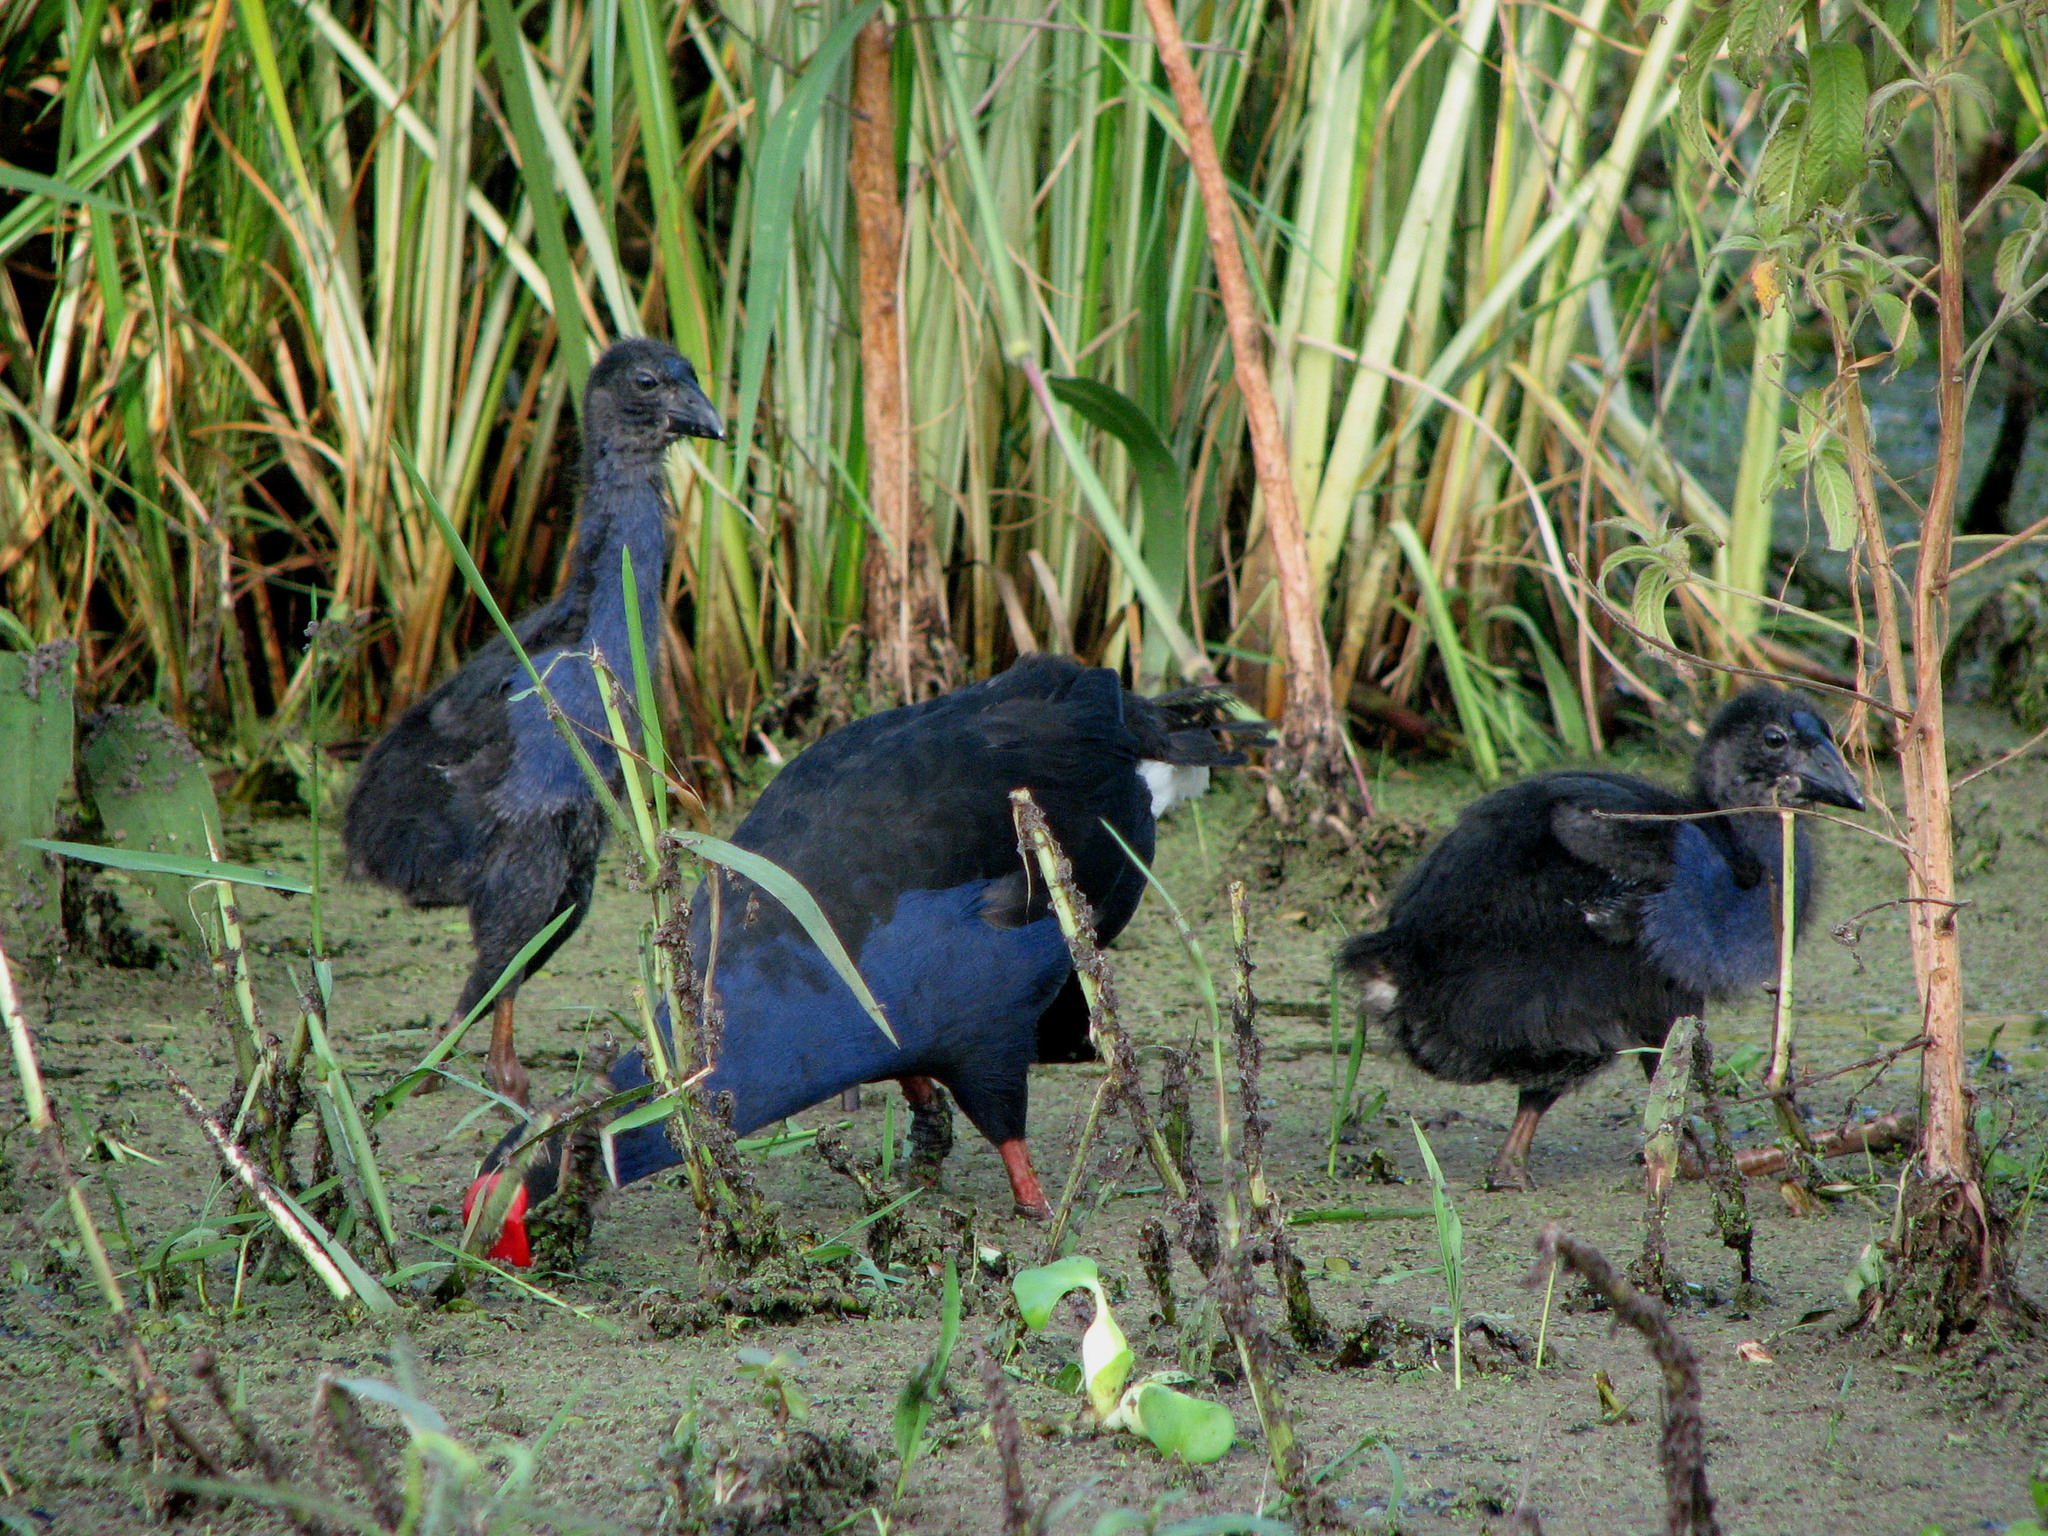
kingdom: Animalia
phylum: Chordata
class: Aves
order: Gruiformes
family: Rallidae
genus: Porphyrio
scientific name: Porphyrio melanotus
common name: Australasian swamphen
